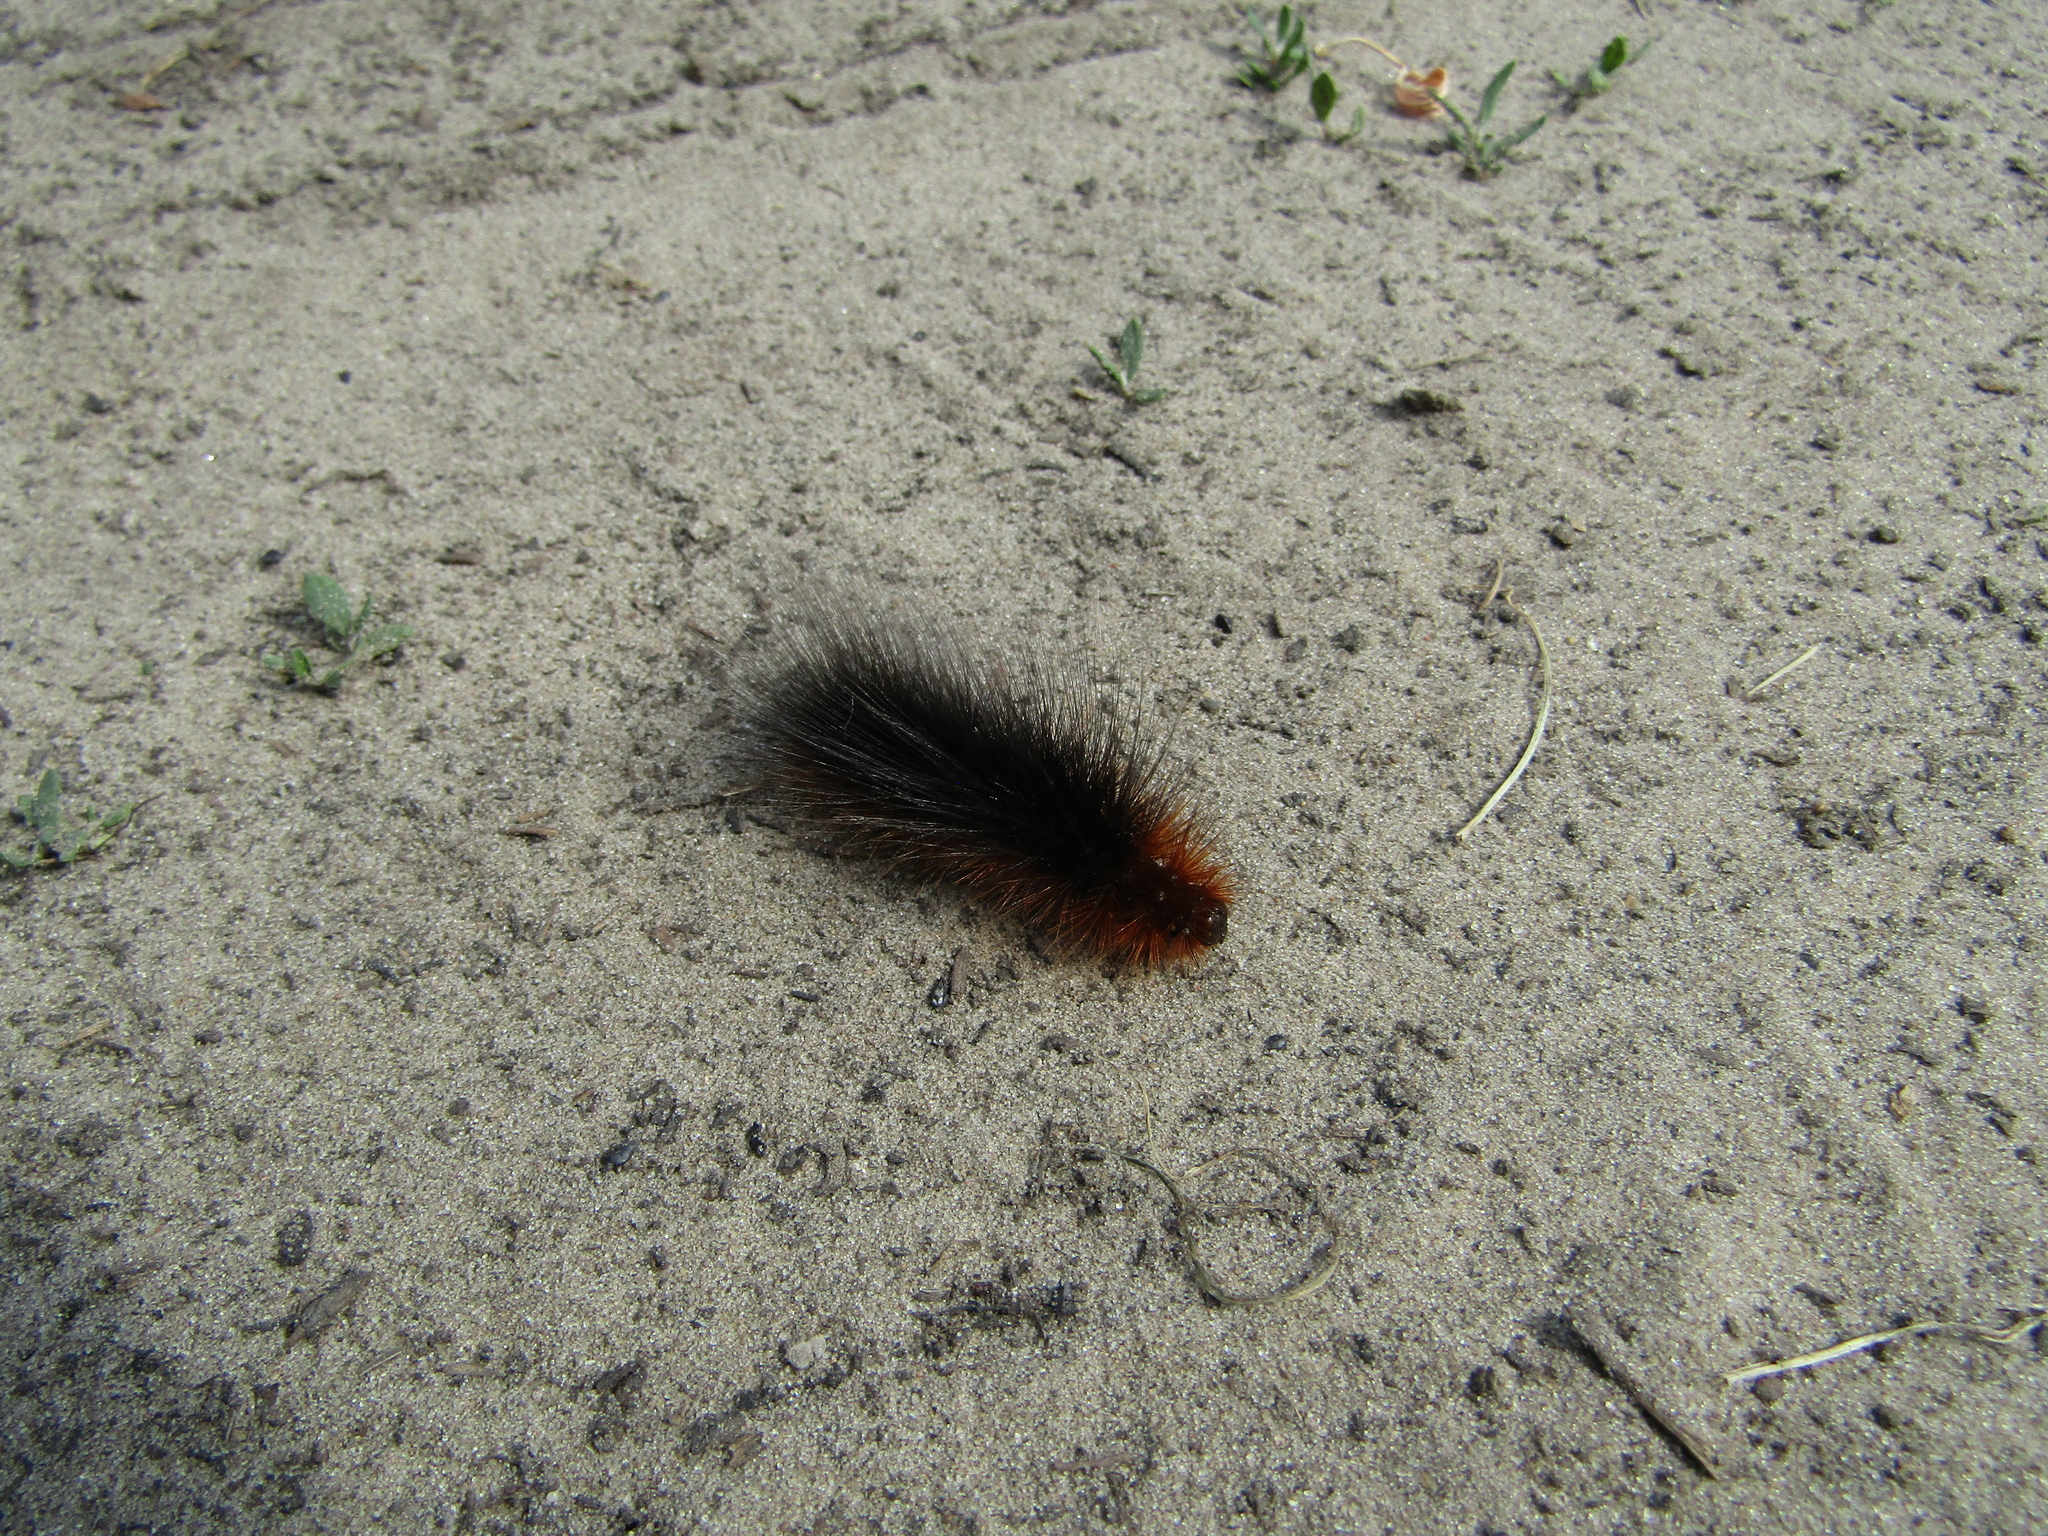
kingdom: Animalia
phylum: Arthropoda
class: Insecta
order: Lepidoptera
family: Erebidae
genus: Arctia
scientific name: Arctia caja
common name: Garden tiger
